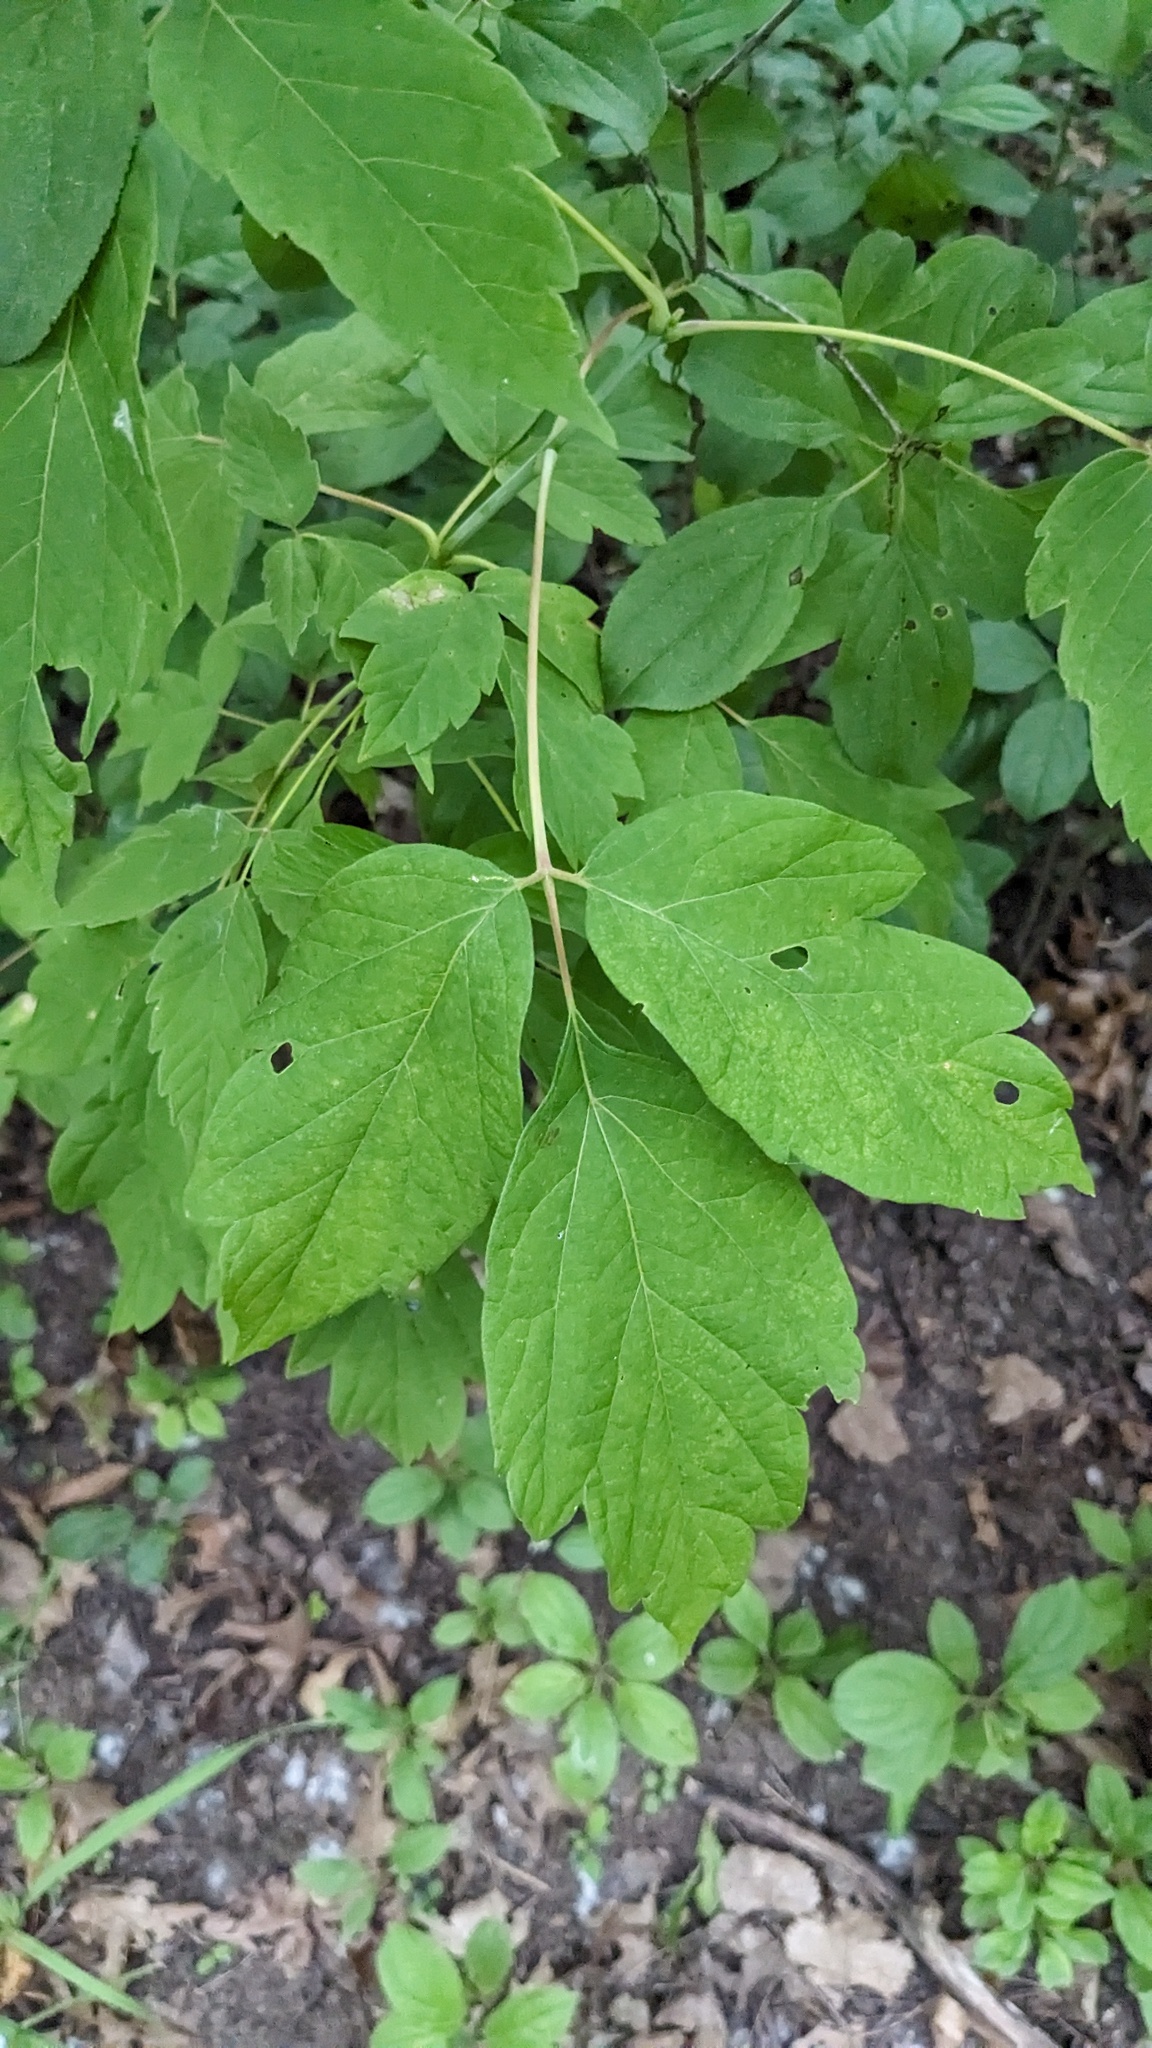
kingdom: Plantae
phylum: Tracheophyta
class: Magnoliopsida
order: Sapindales
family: Sapindaceae
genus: Acer
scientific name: Acer negundo
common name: Ashleaf maple
